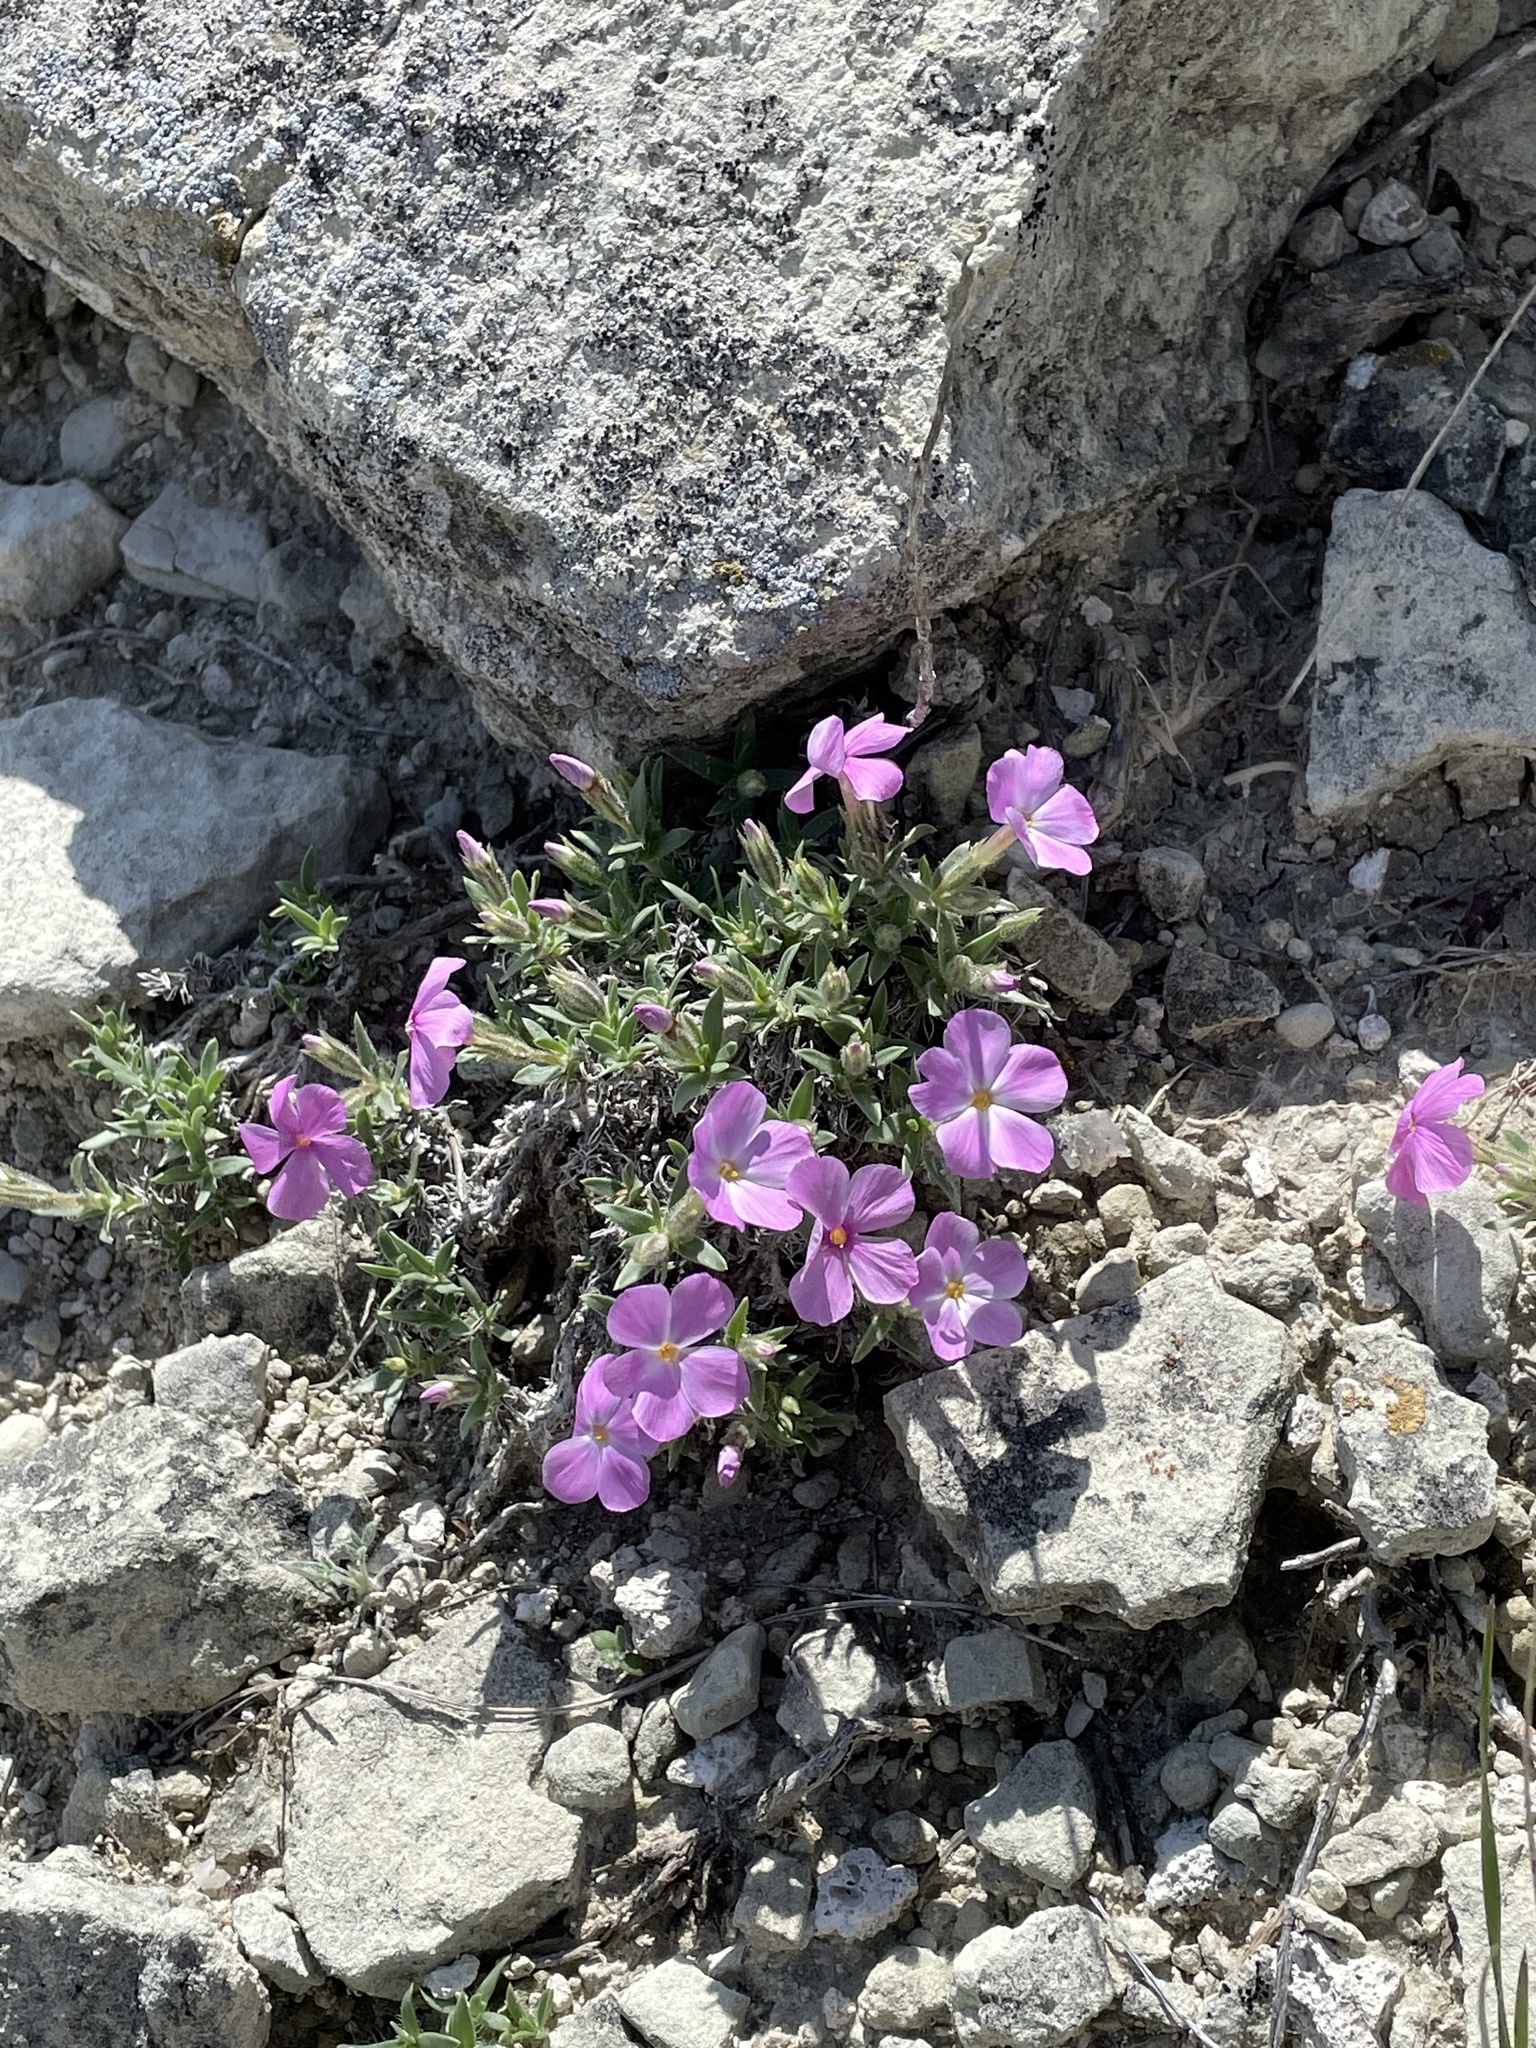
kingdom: Plantae
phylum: Tracheophyta
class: Magnoliopsida
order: Ericales
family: Polemoniaceae
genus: Phlox
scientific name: Phlox alyssifolia
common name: Blue phlox
